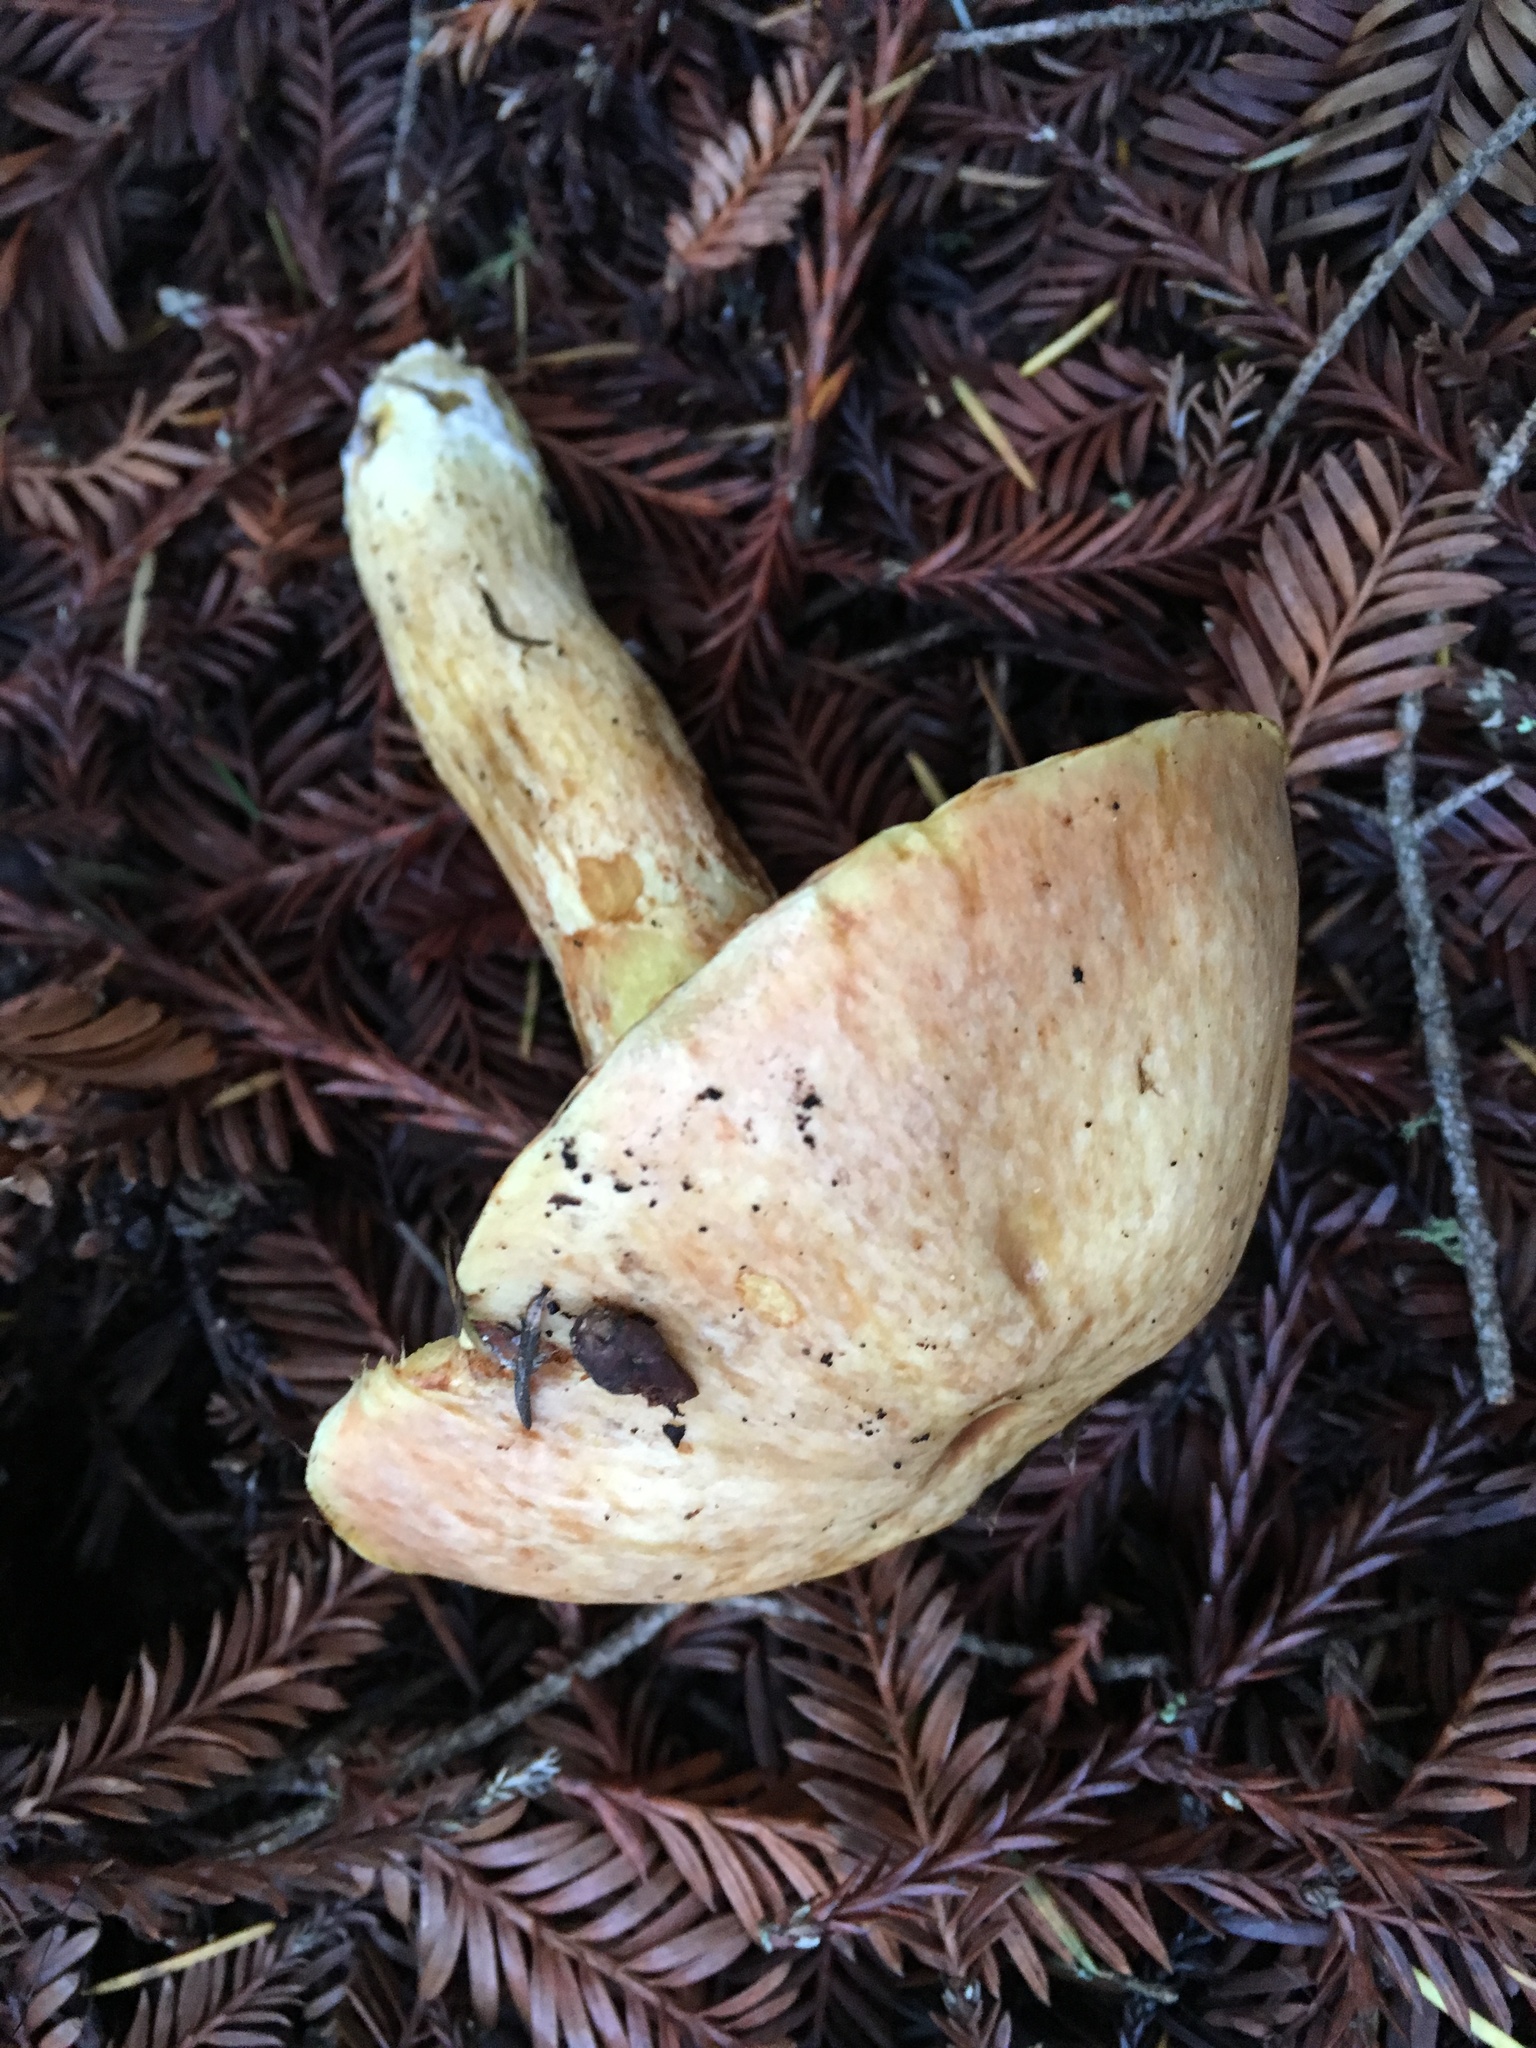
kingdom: Fungi
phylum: Basidiomycota
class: Agaricomycetes
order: Boletales
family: Suillaceae
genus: Suillus
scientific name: Suillus fuscotomentosus
